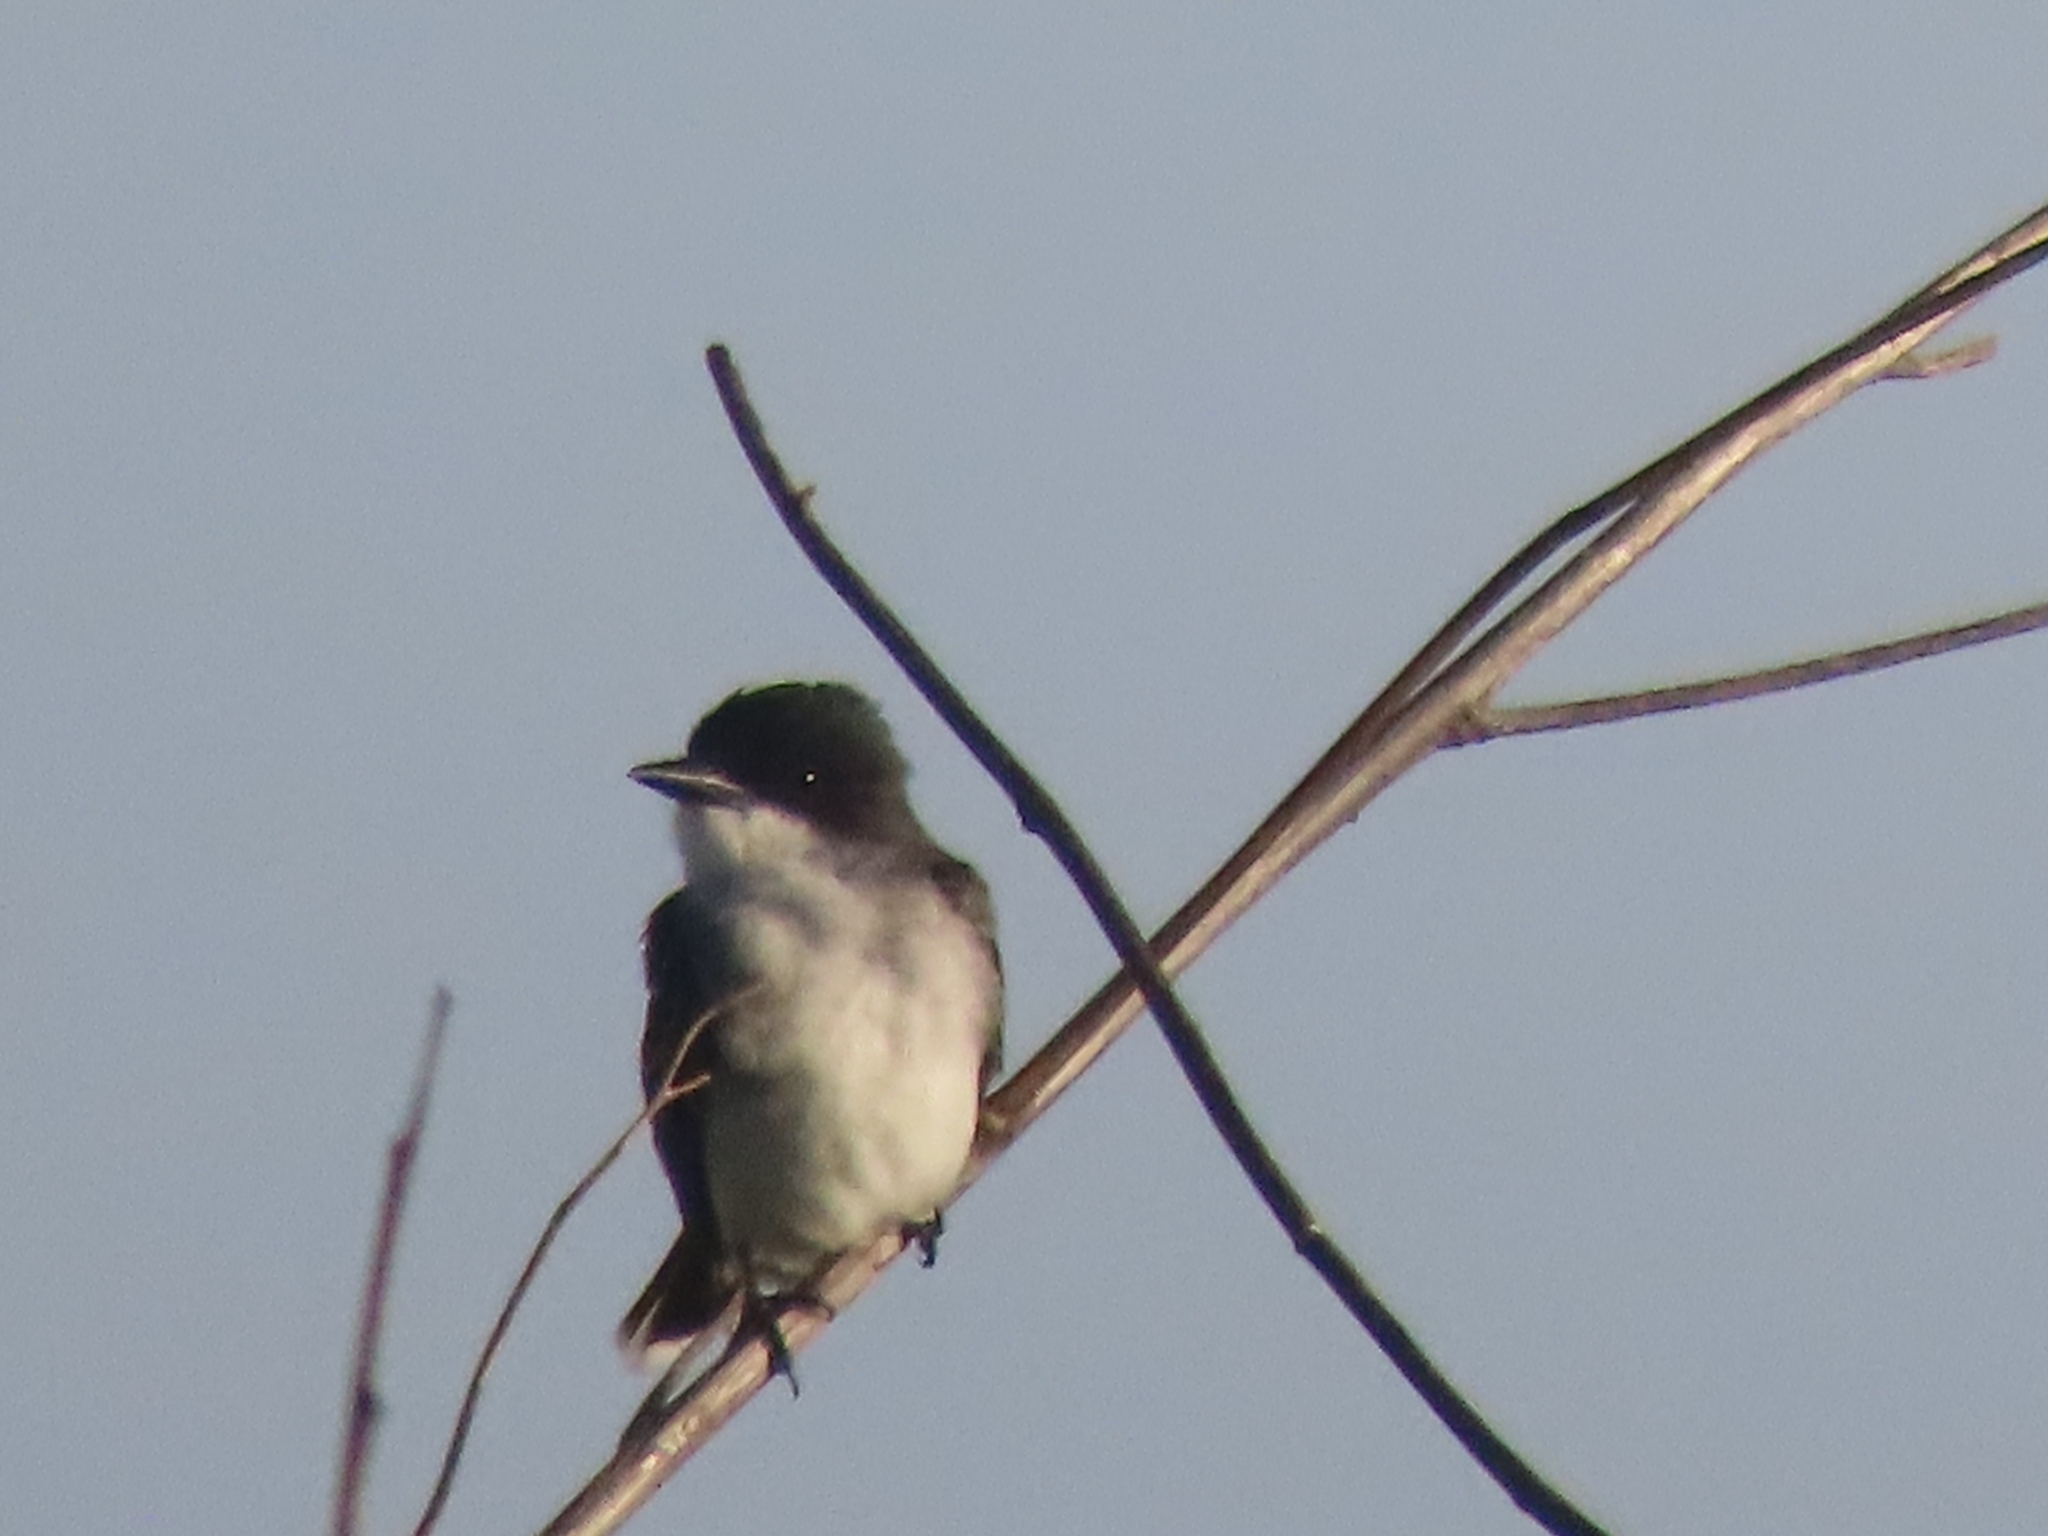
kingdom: Animalia
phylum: Chordata
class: Aves
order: Passeriformes
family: Tyrannidae
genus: Tyrannus
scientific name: Tyrannus tyrannus
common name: Eastern kingbird
